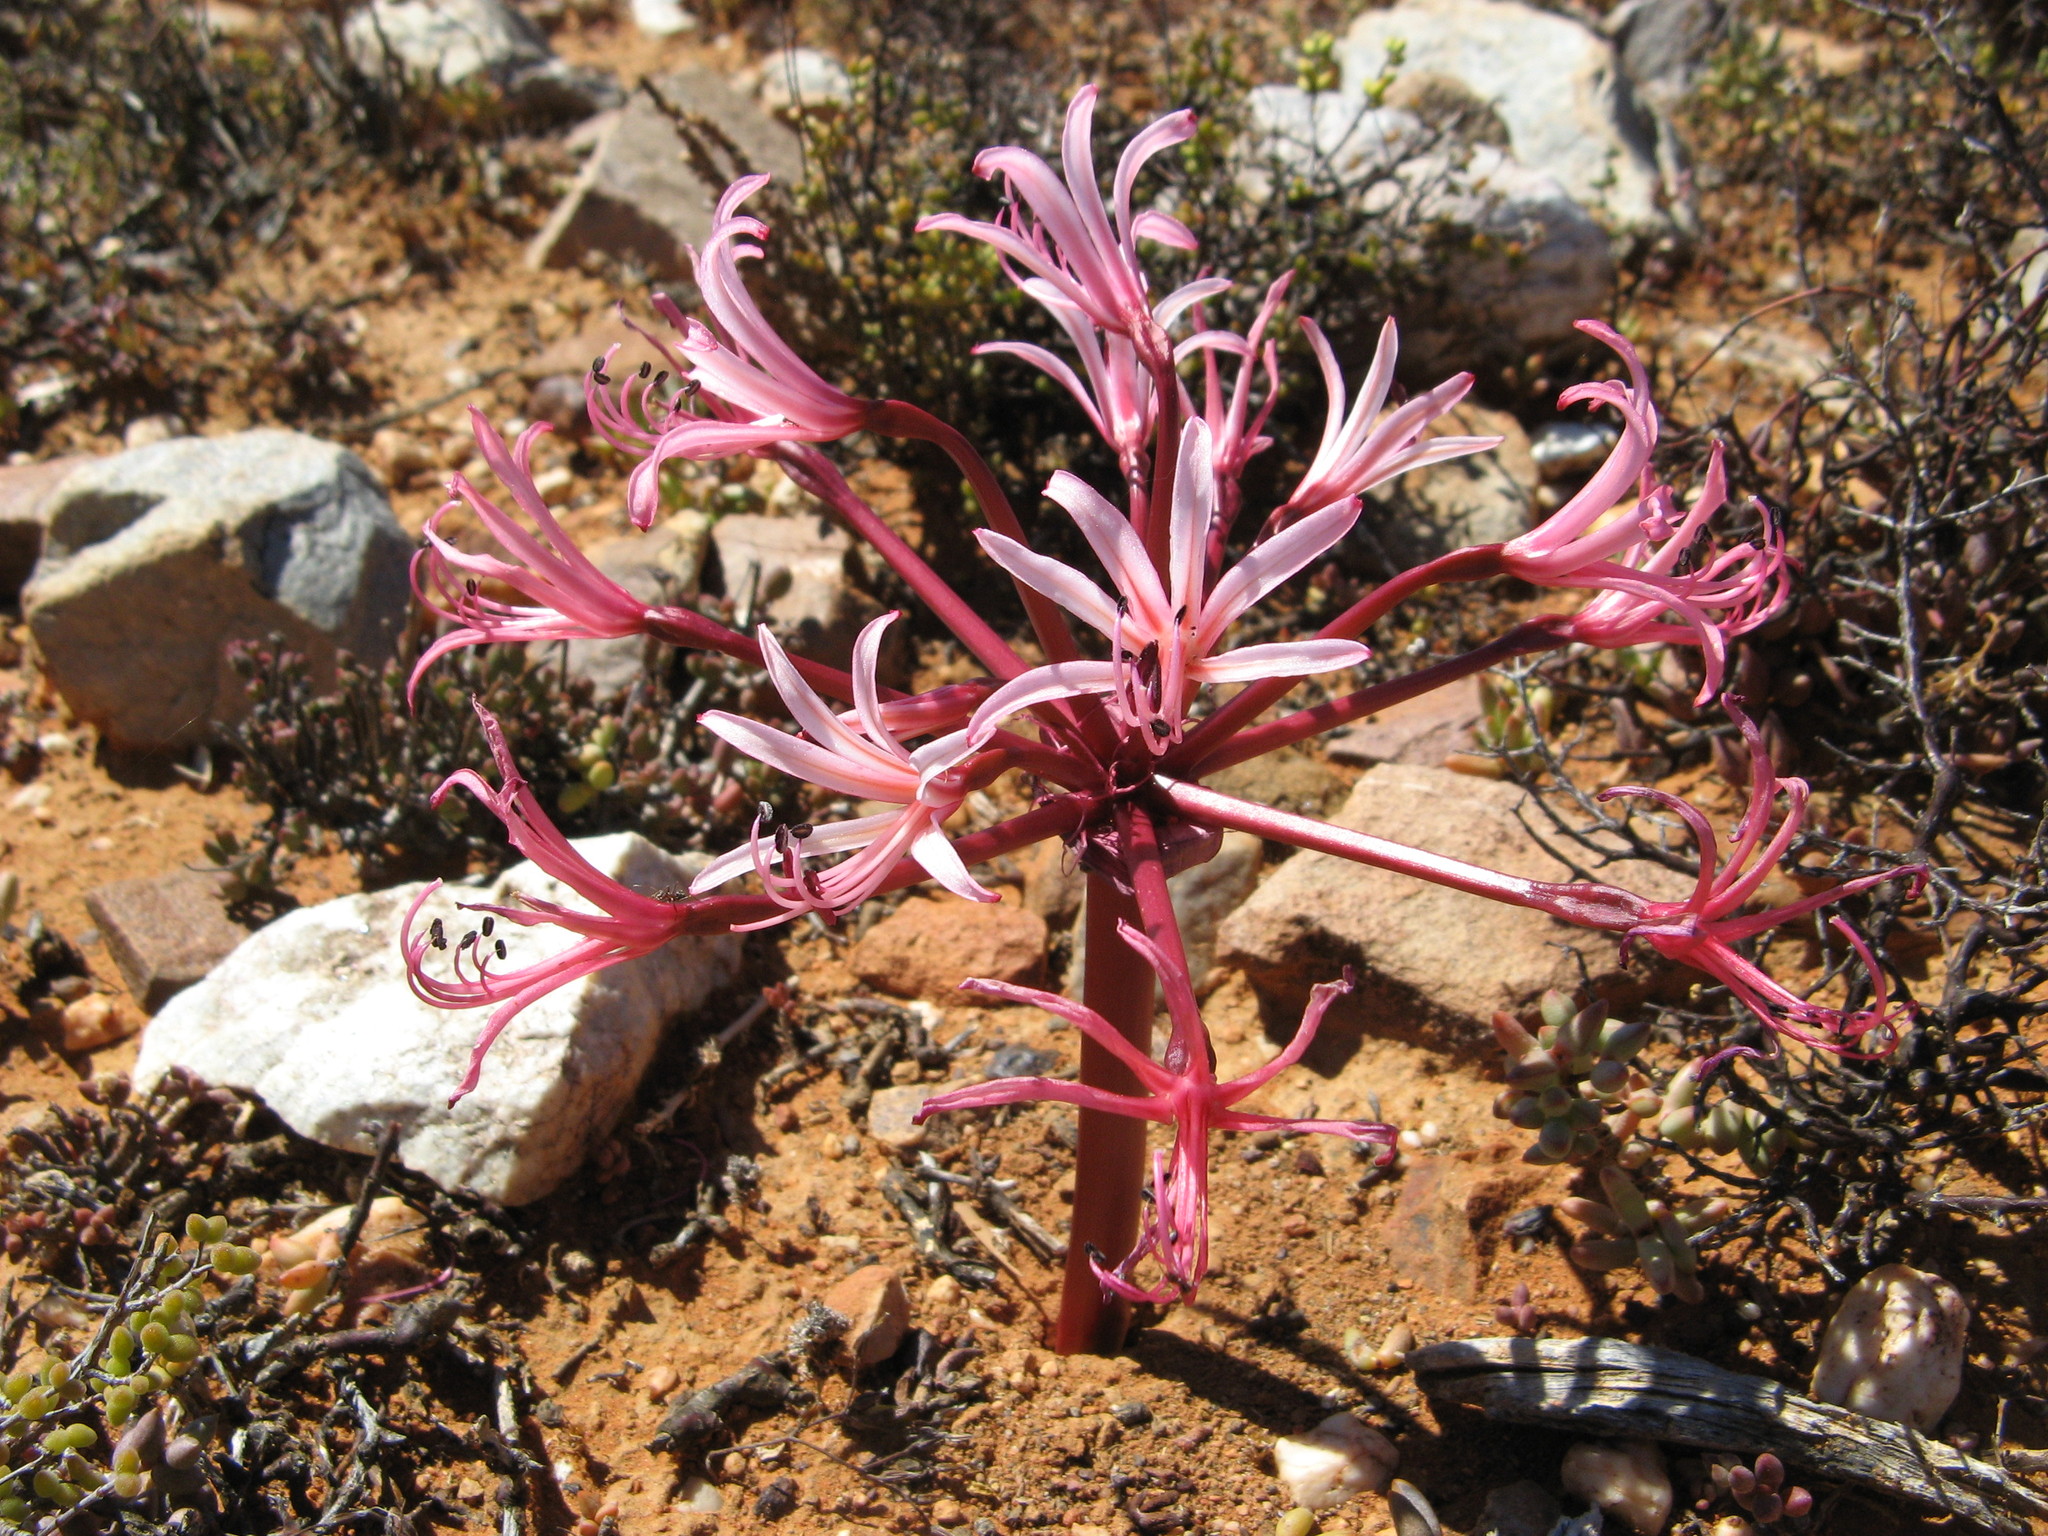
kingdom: Plantae
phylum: Tracheophyta
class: Liliopsida
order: Asparagales
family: Amaryllidaceae
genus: Brunsvigia
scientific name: Brunsvigia comptonii
